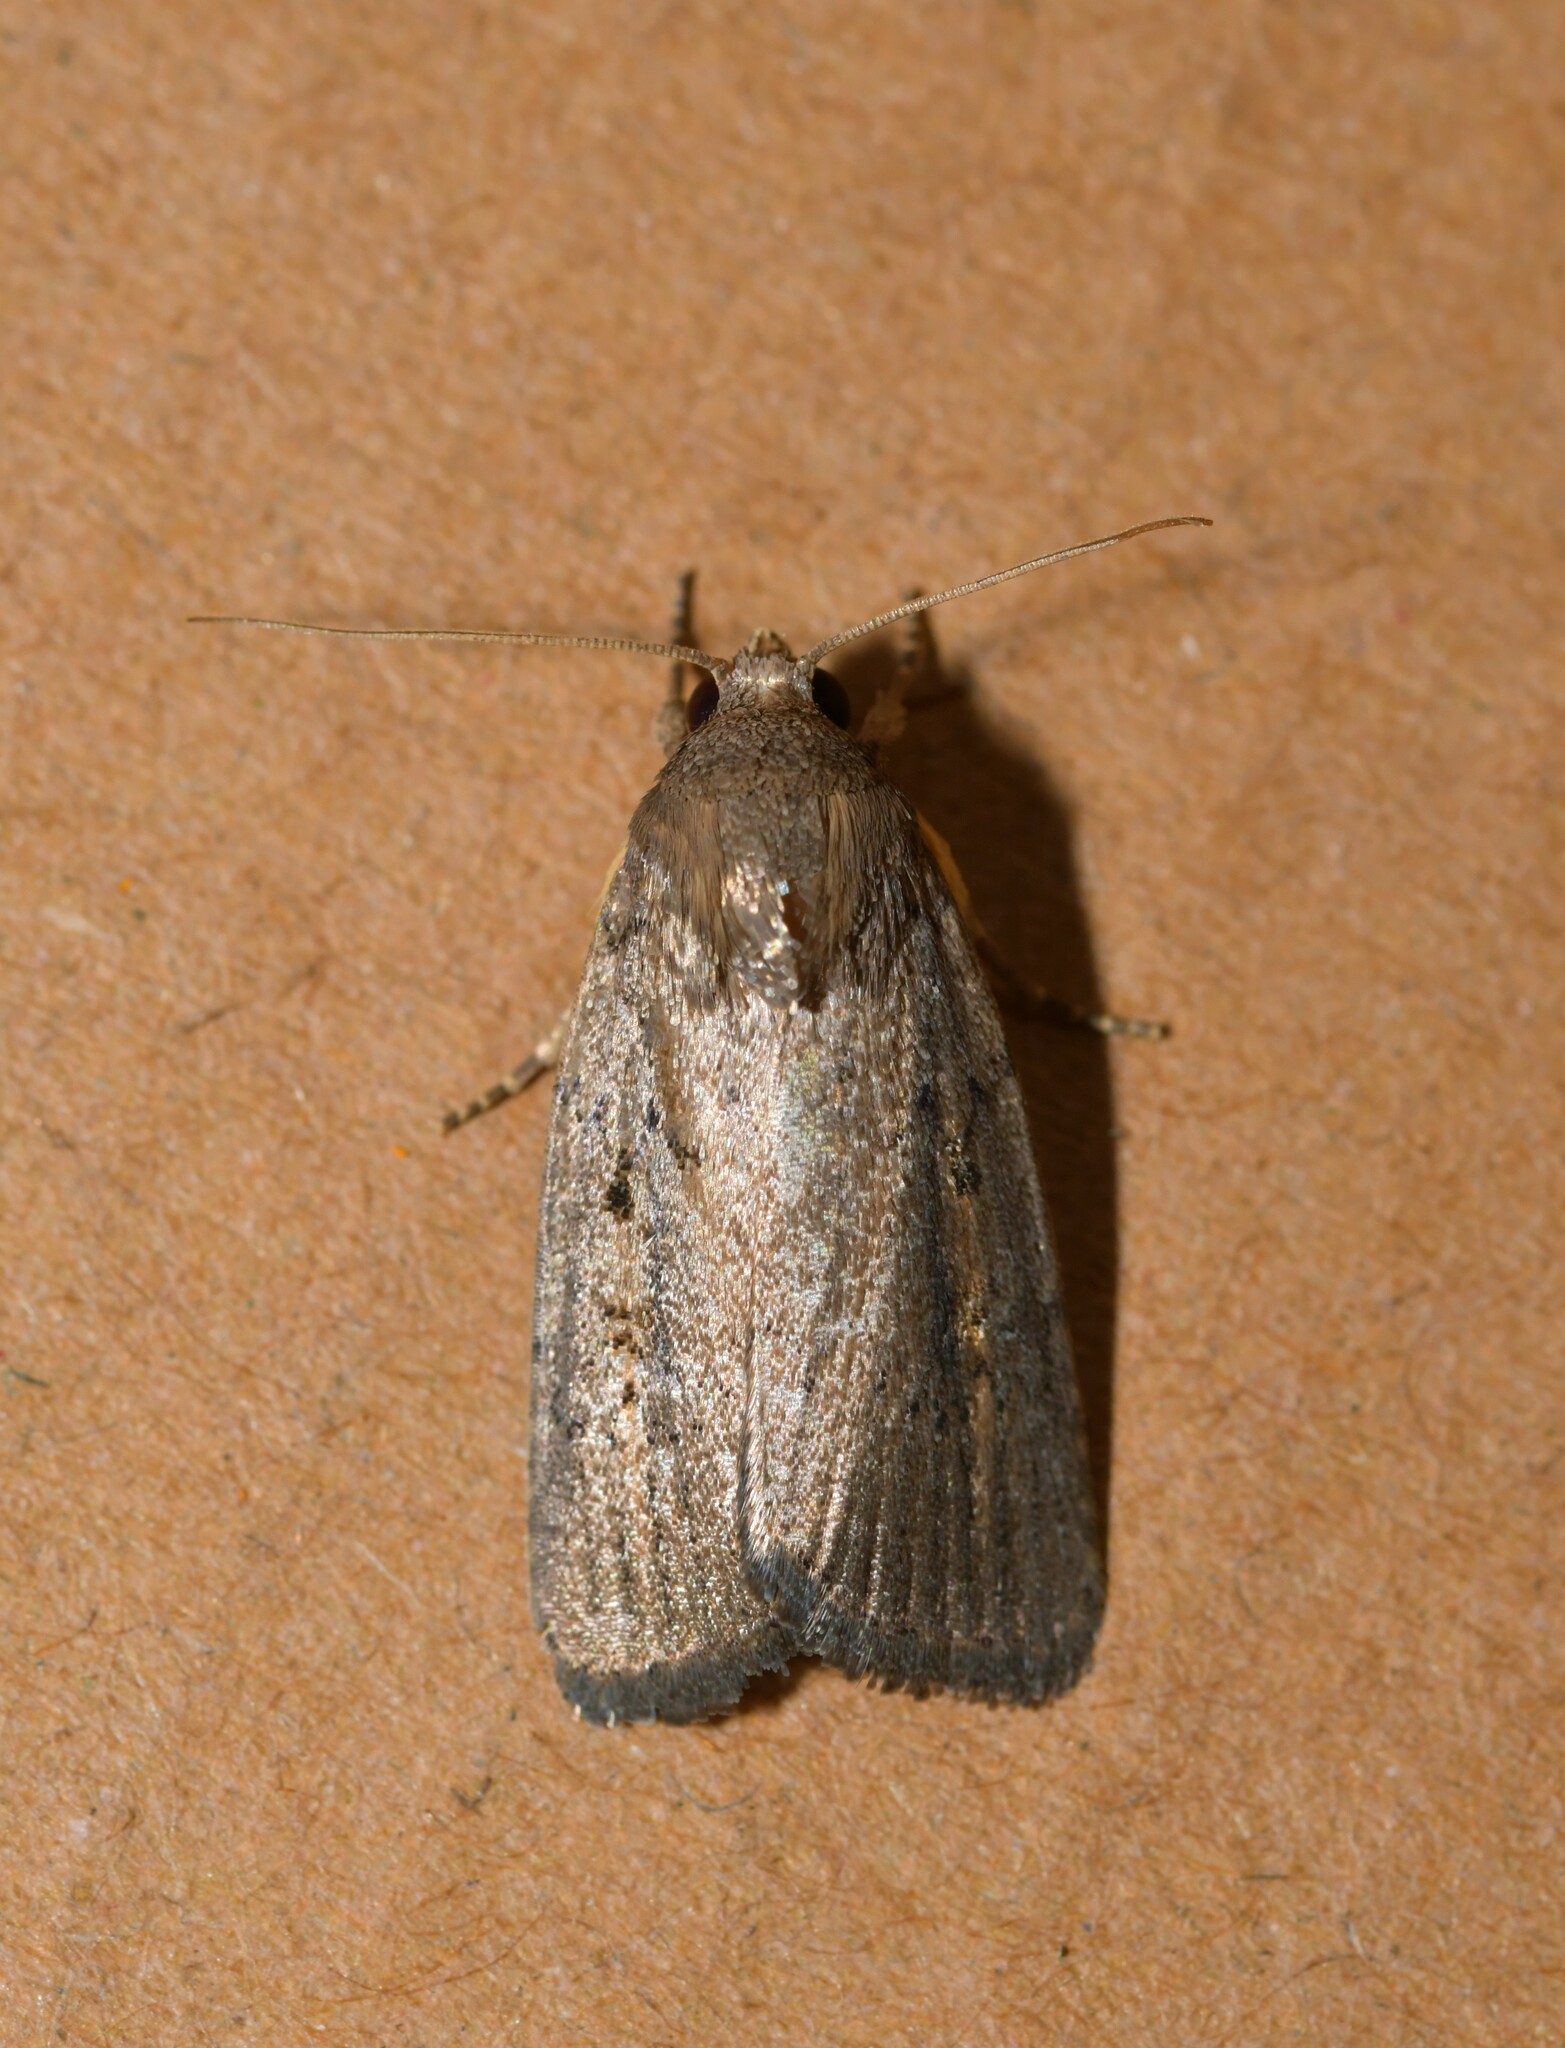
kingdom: Animalia
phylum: Arthropoda
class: Insecta
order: Lepidoptera
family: Noctuidae
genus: Athetis
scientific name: Athetis hospes
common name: Porter's rustic
